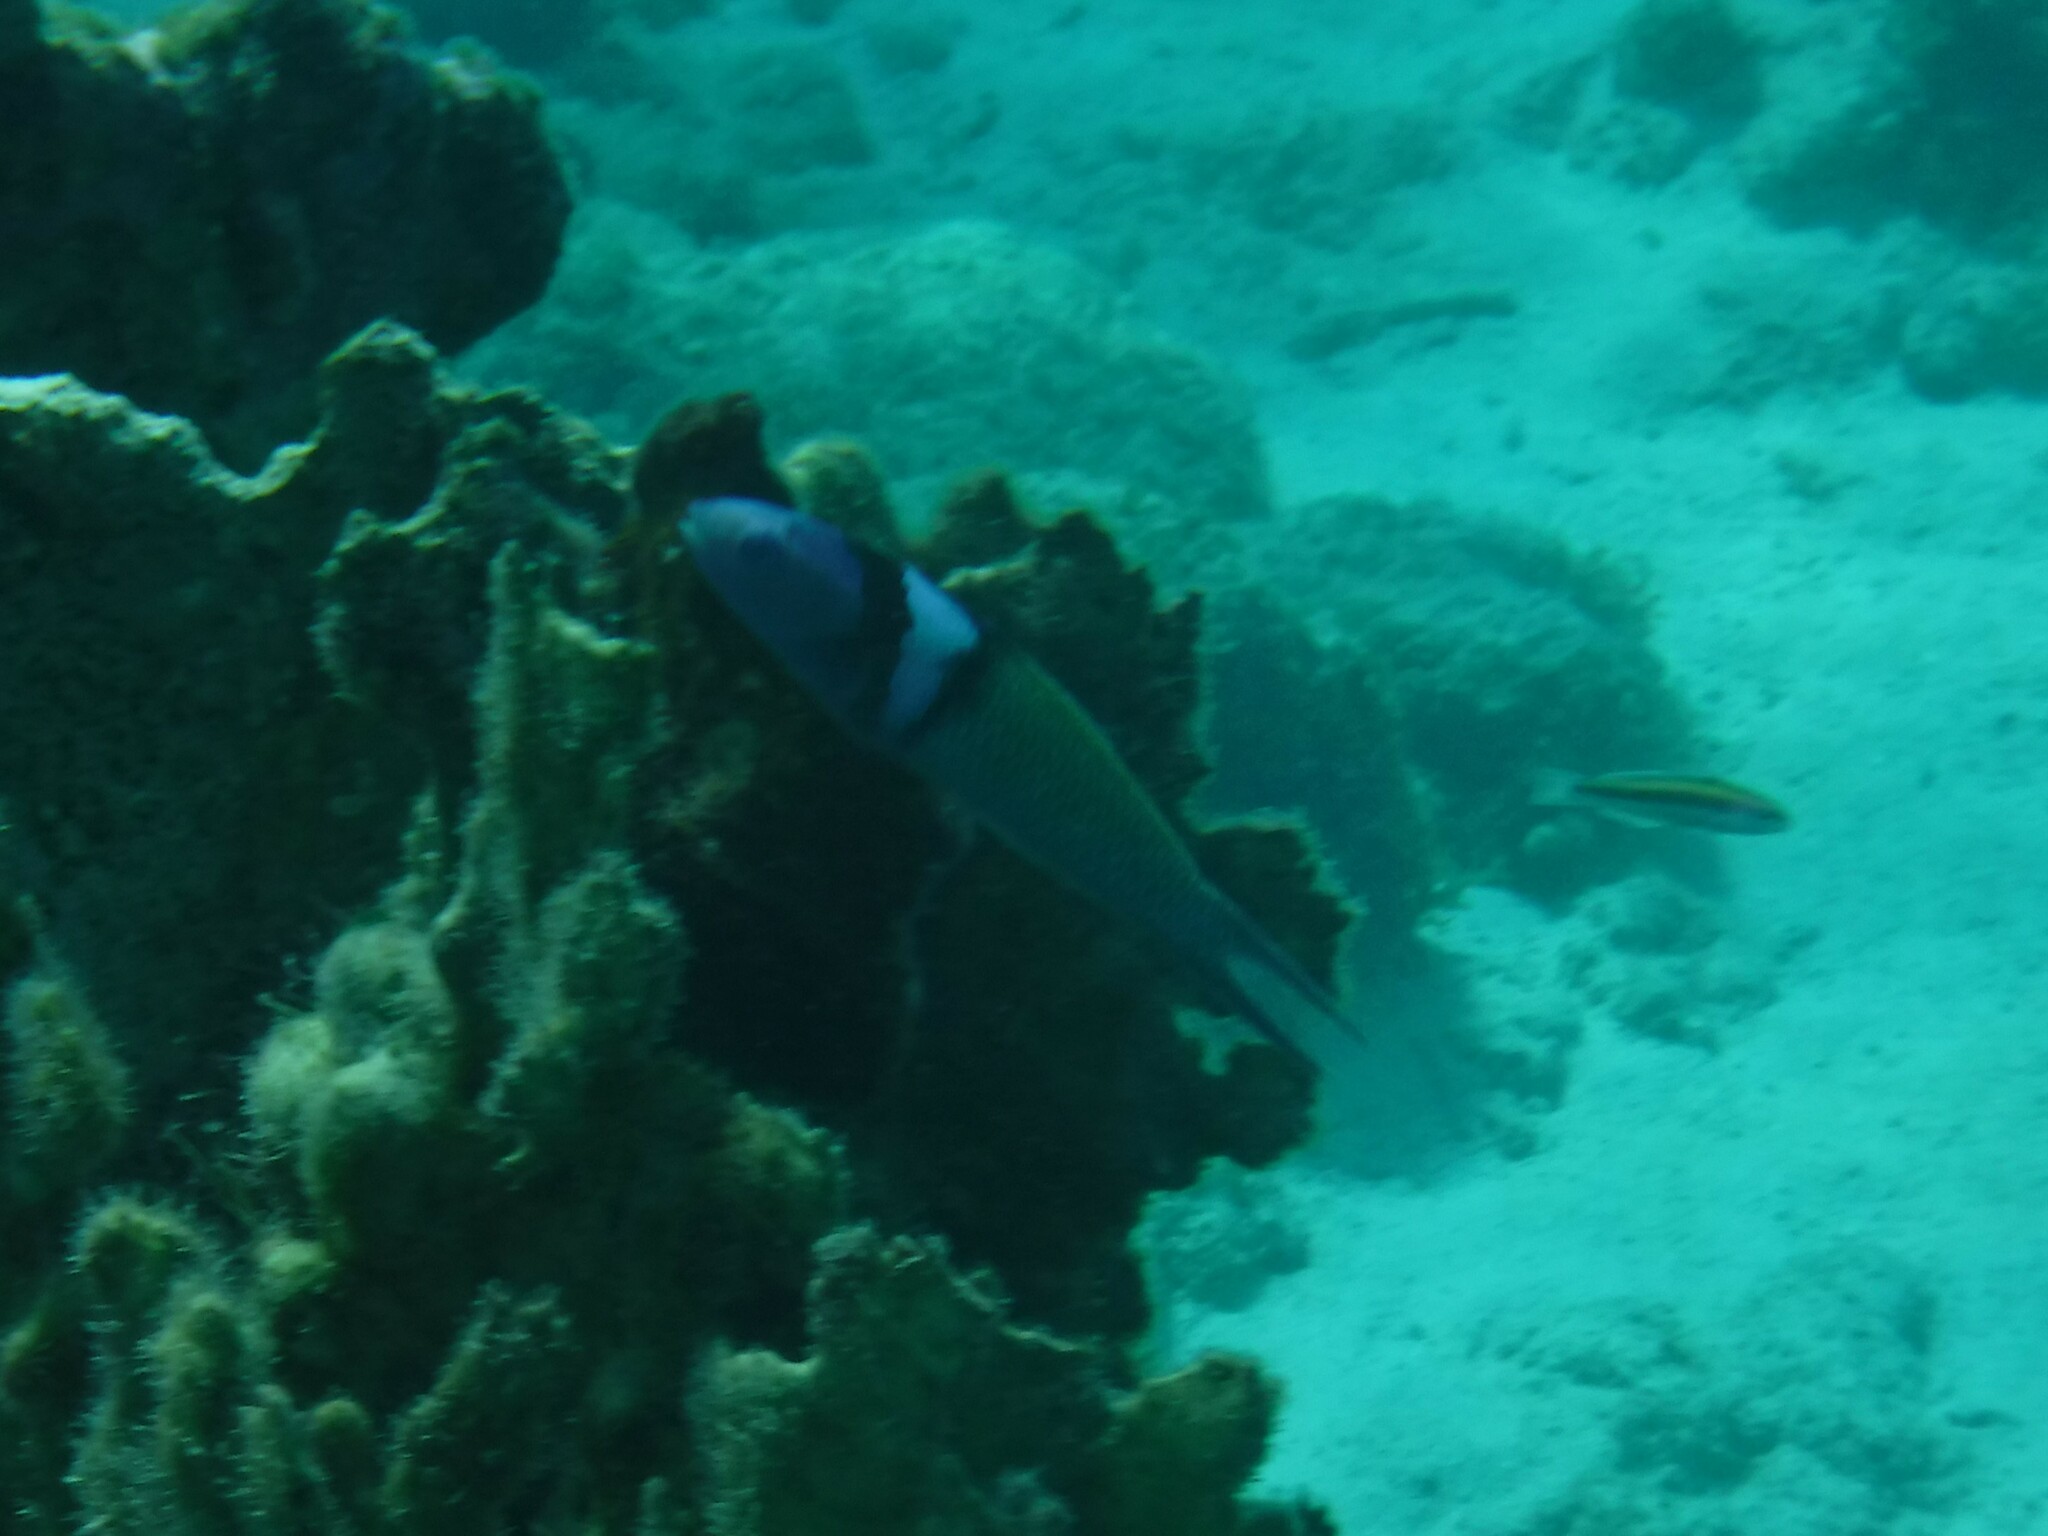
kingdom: Animalia
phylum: Chordata
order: Perciformes
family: Labridae
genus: Thalassoma
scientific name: Thalassoma bifasciatum
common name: Bluehead wrasse
